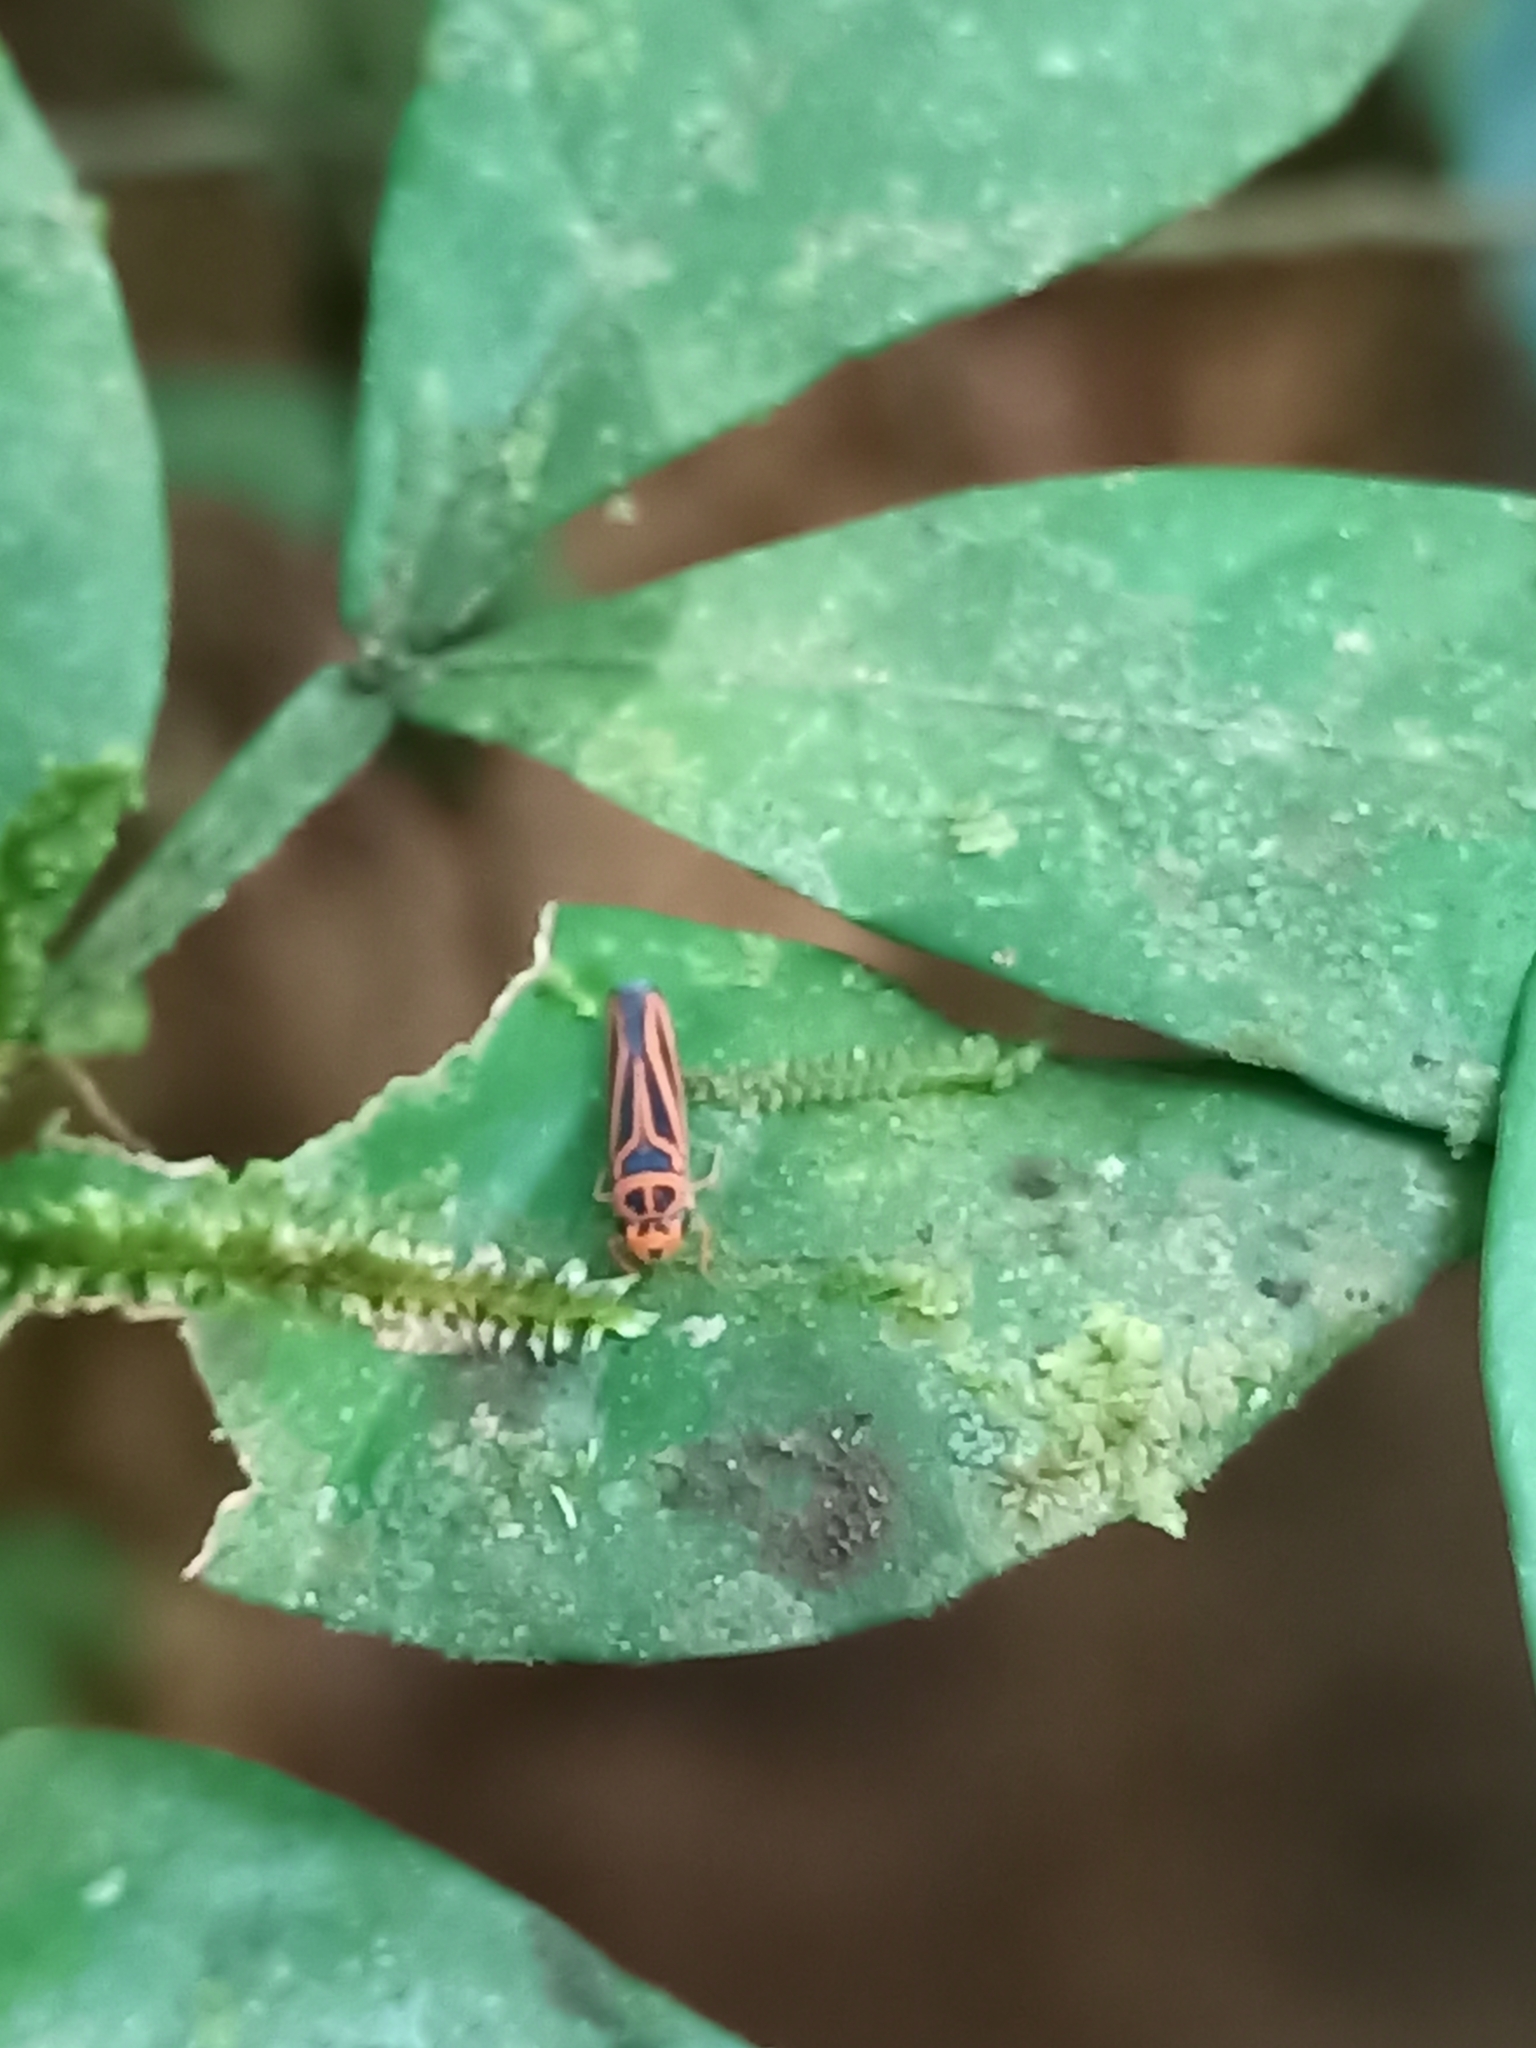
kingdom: Animalia
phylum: Arthropoda
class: Insecta
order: Hemiptera
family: Cicadellidae
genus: Soosiulus
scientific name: Soosiulus facis
